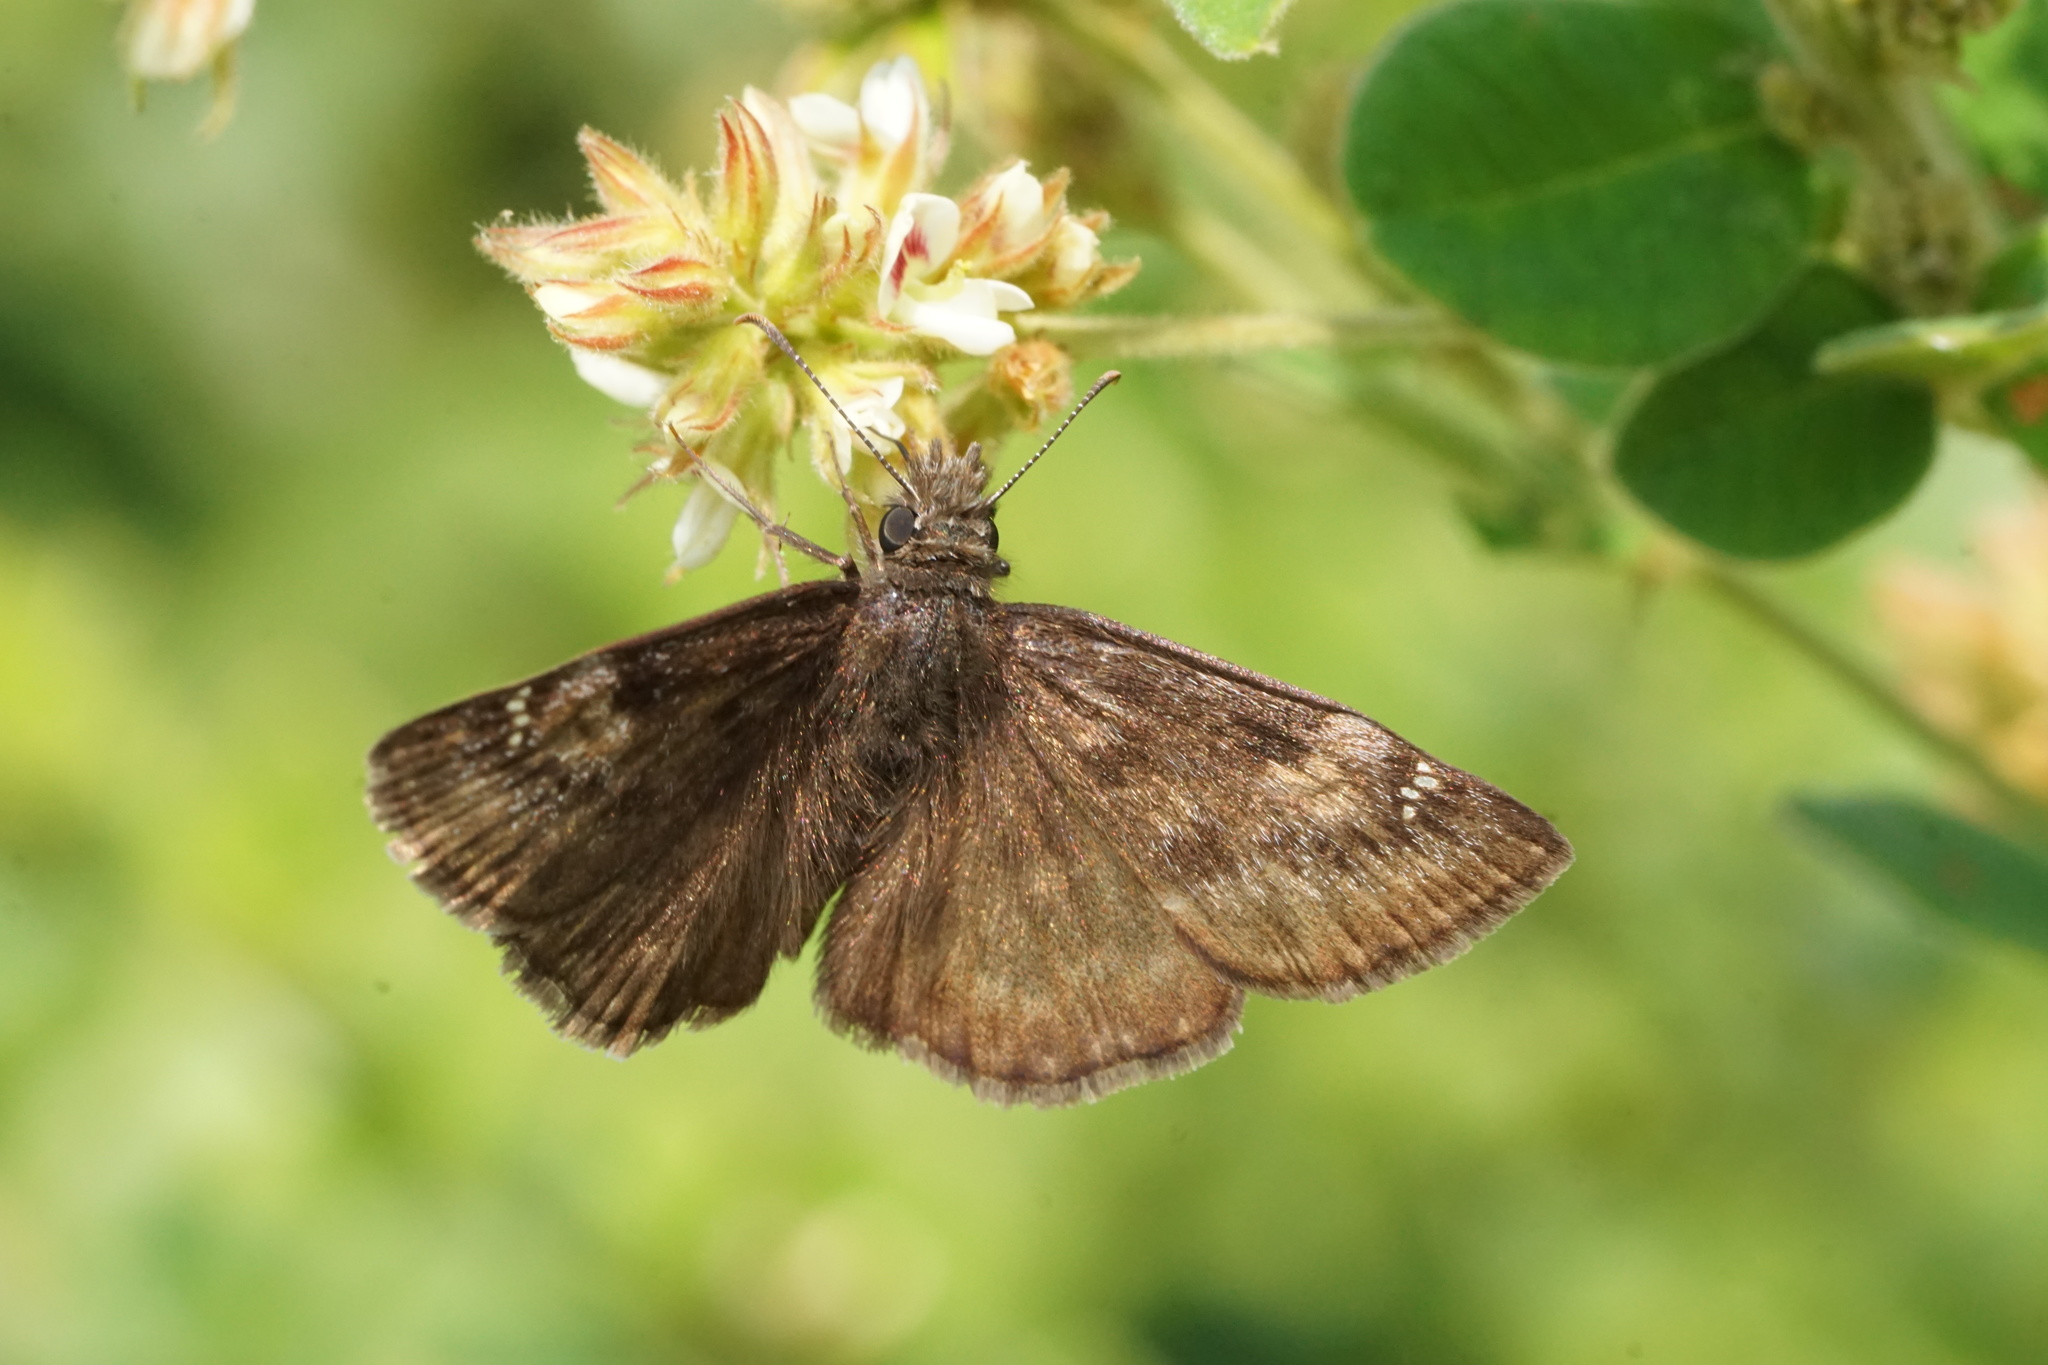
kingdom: Animalia
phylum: Arthropoda
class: Insecta
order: Lepidoptera
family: Hesperiidae
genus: Erynnis
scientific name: Erynnis baptisiae
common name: Wild indigo duskywing
